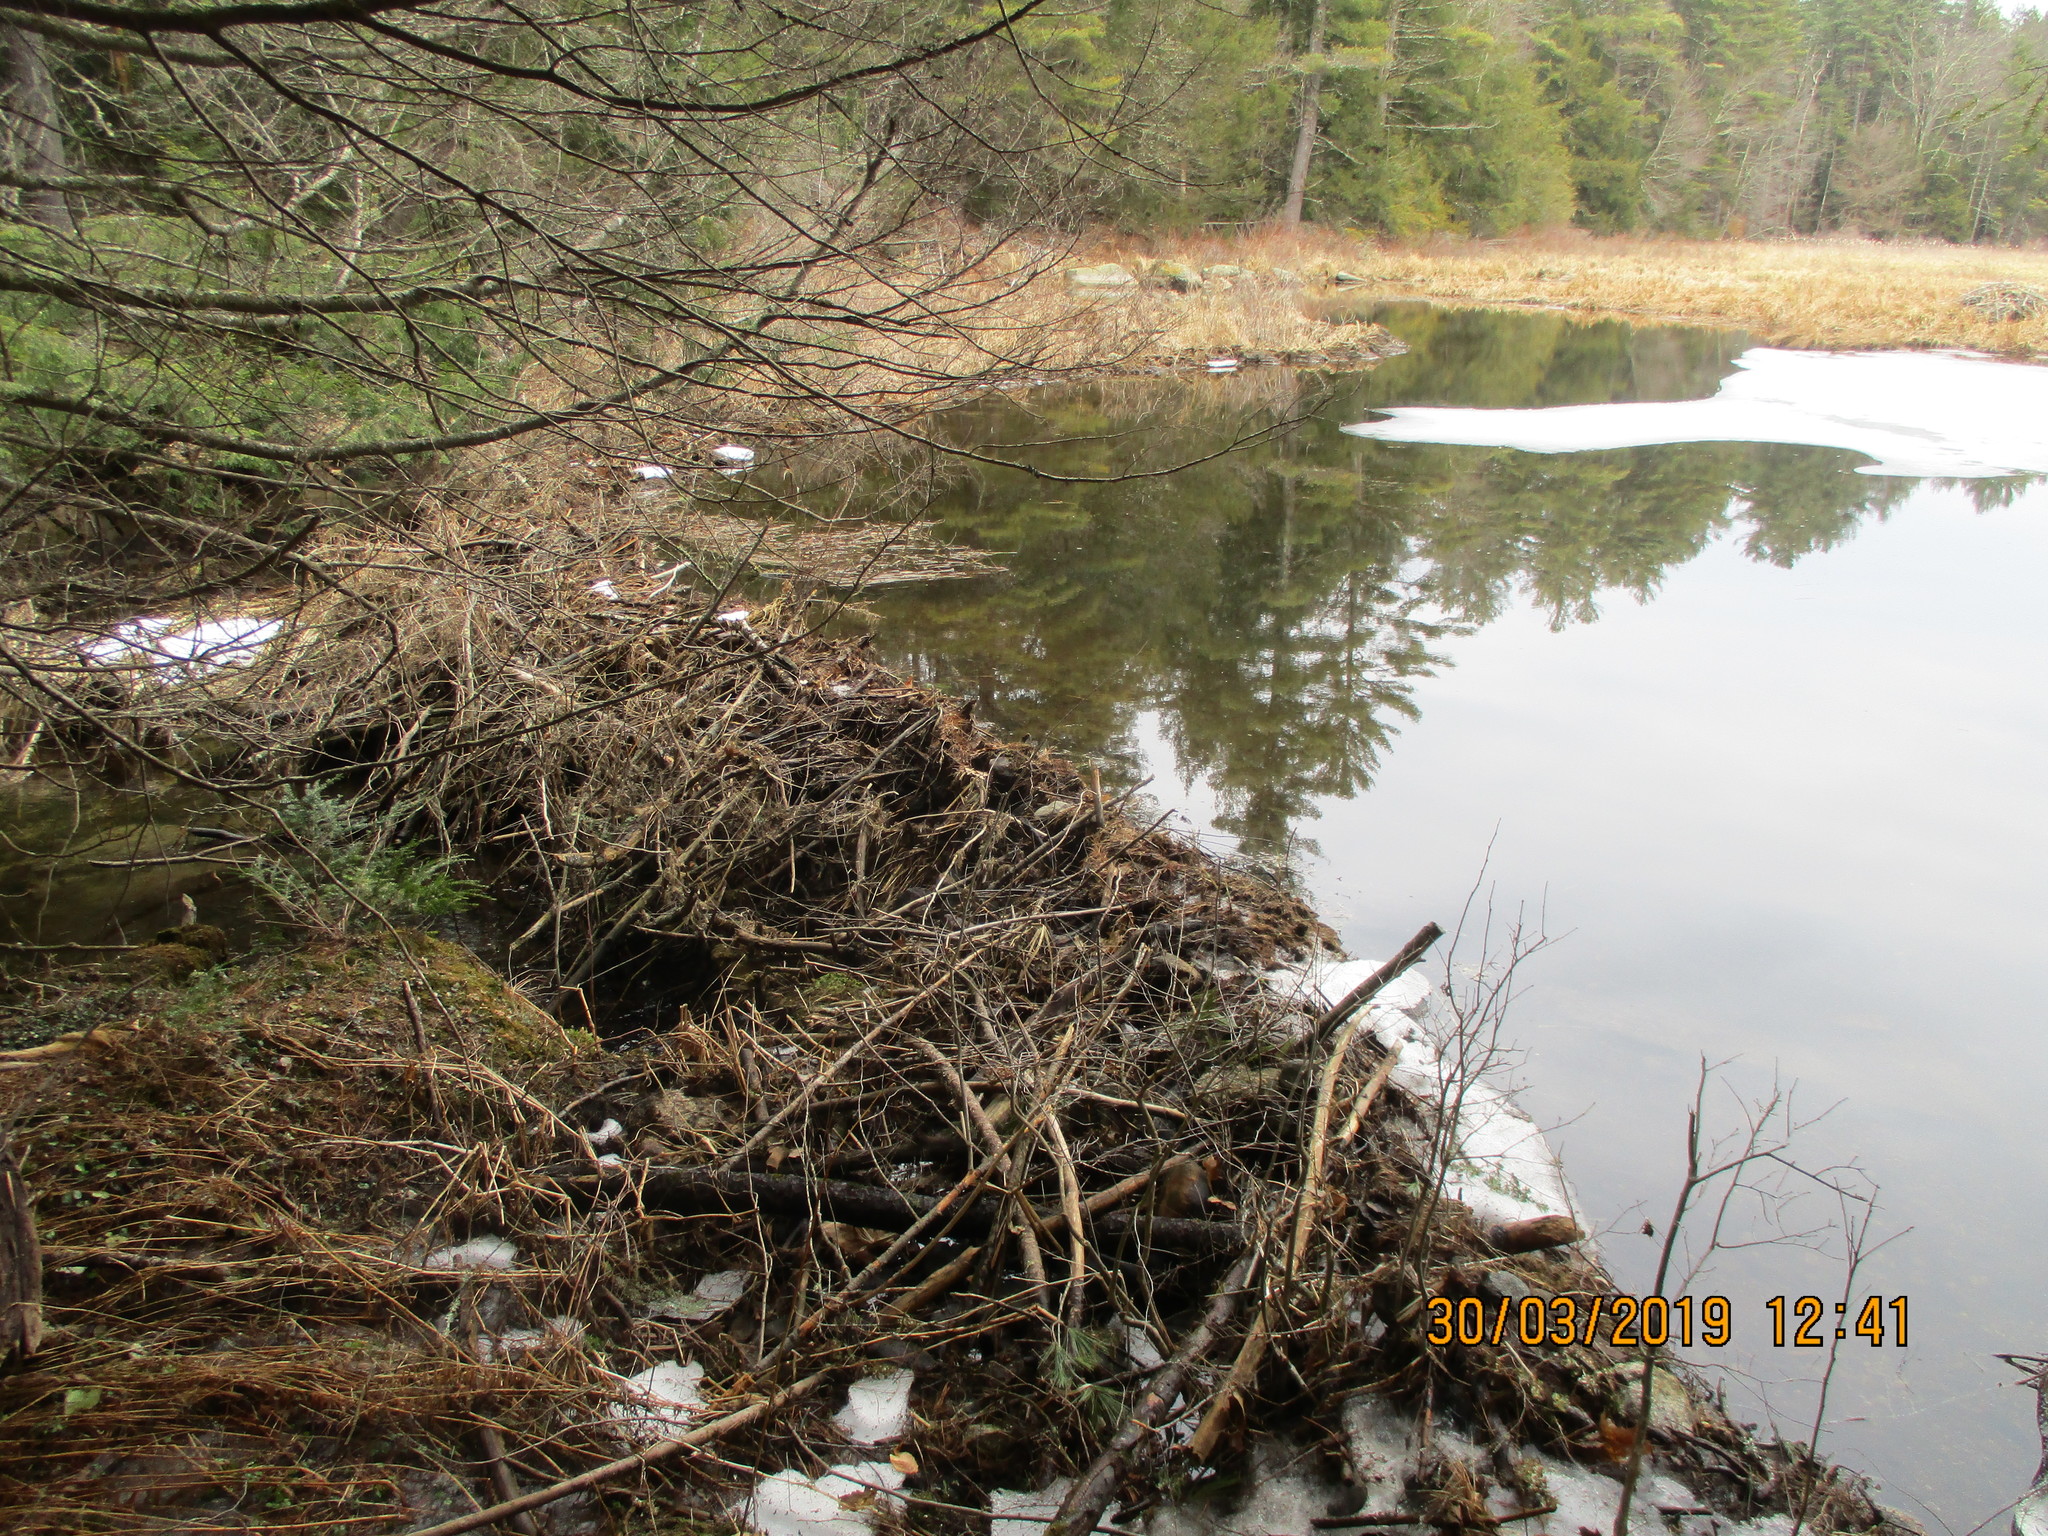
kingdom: Animalia
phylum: Chordata
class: Mammalia
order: Rodentia
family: Castoridae
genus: Castor
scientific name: Castor canadensis
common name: American beaver
